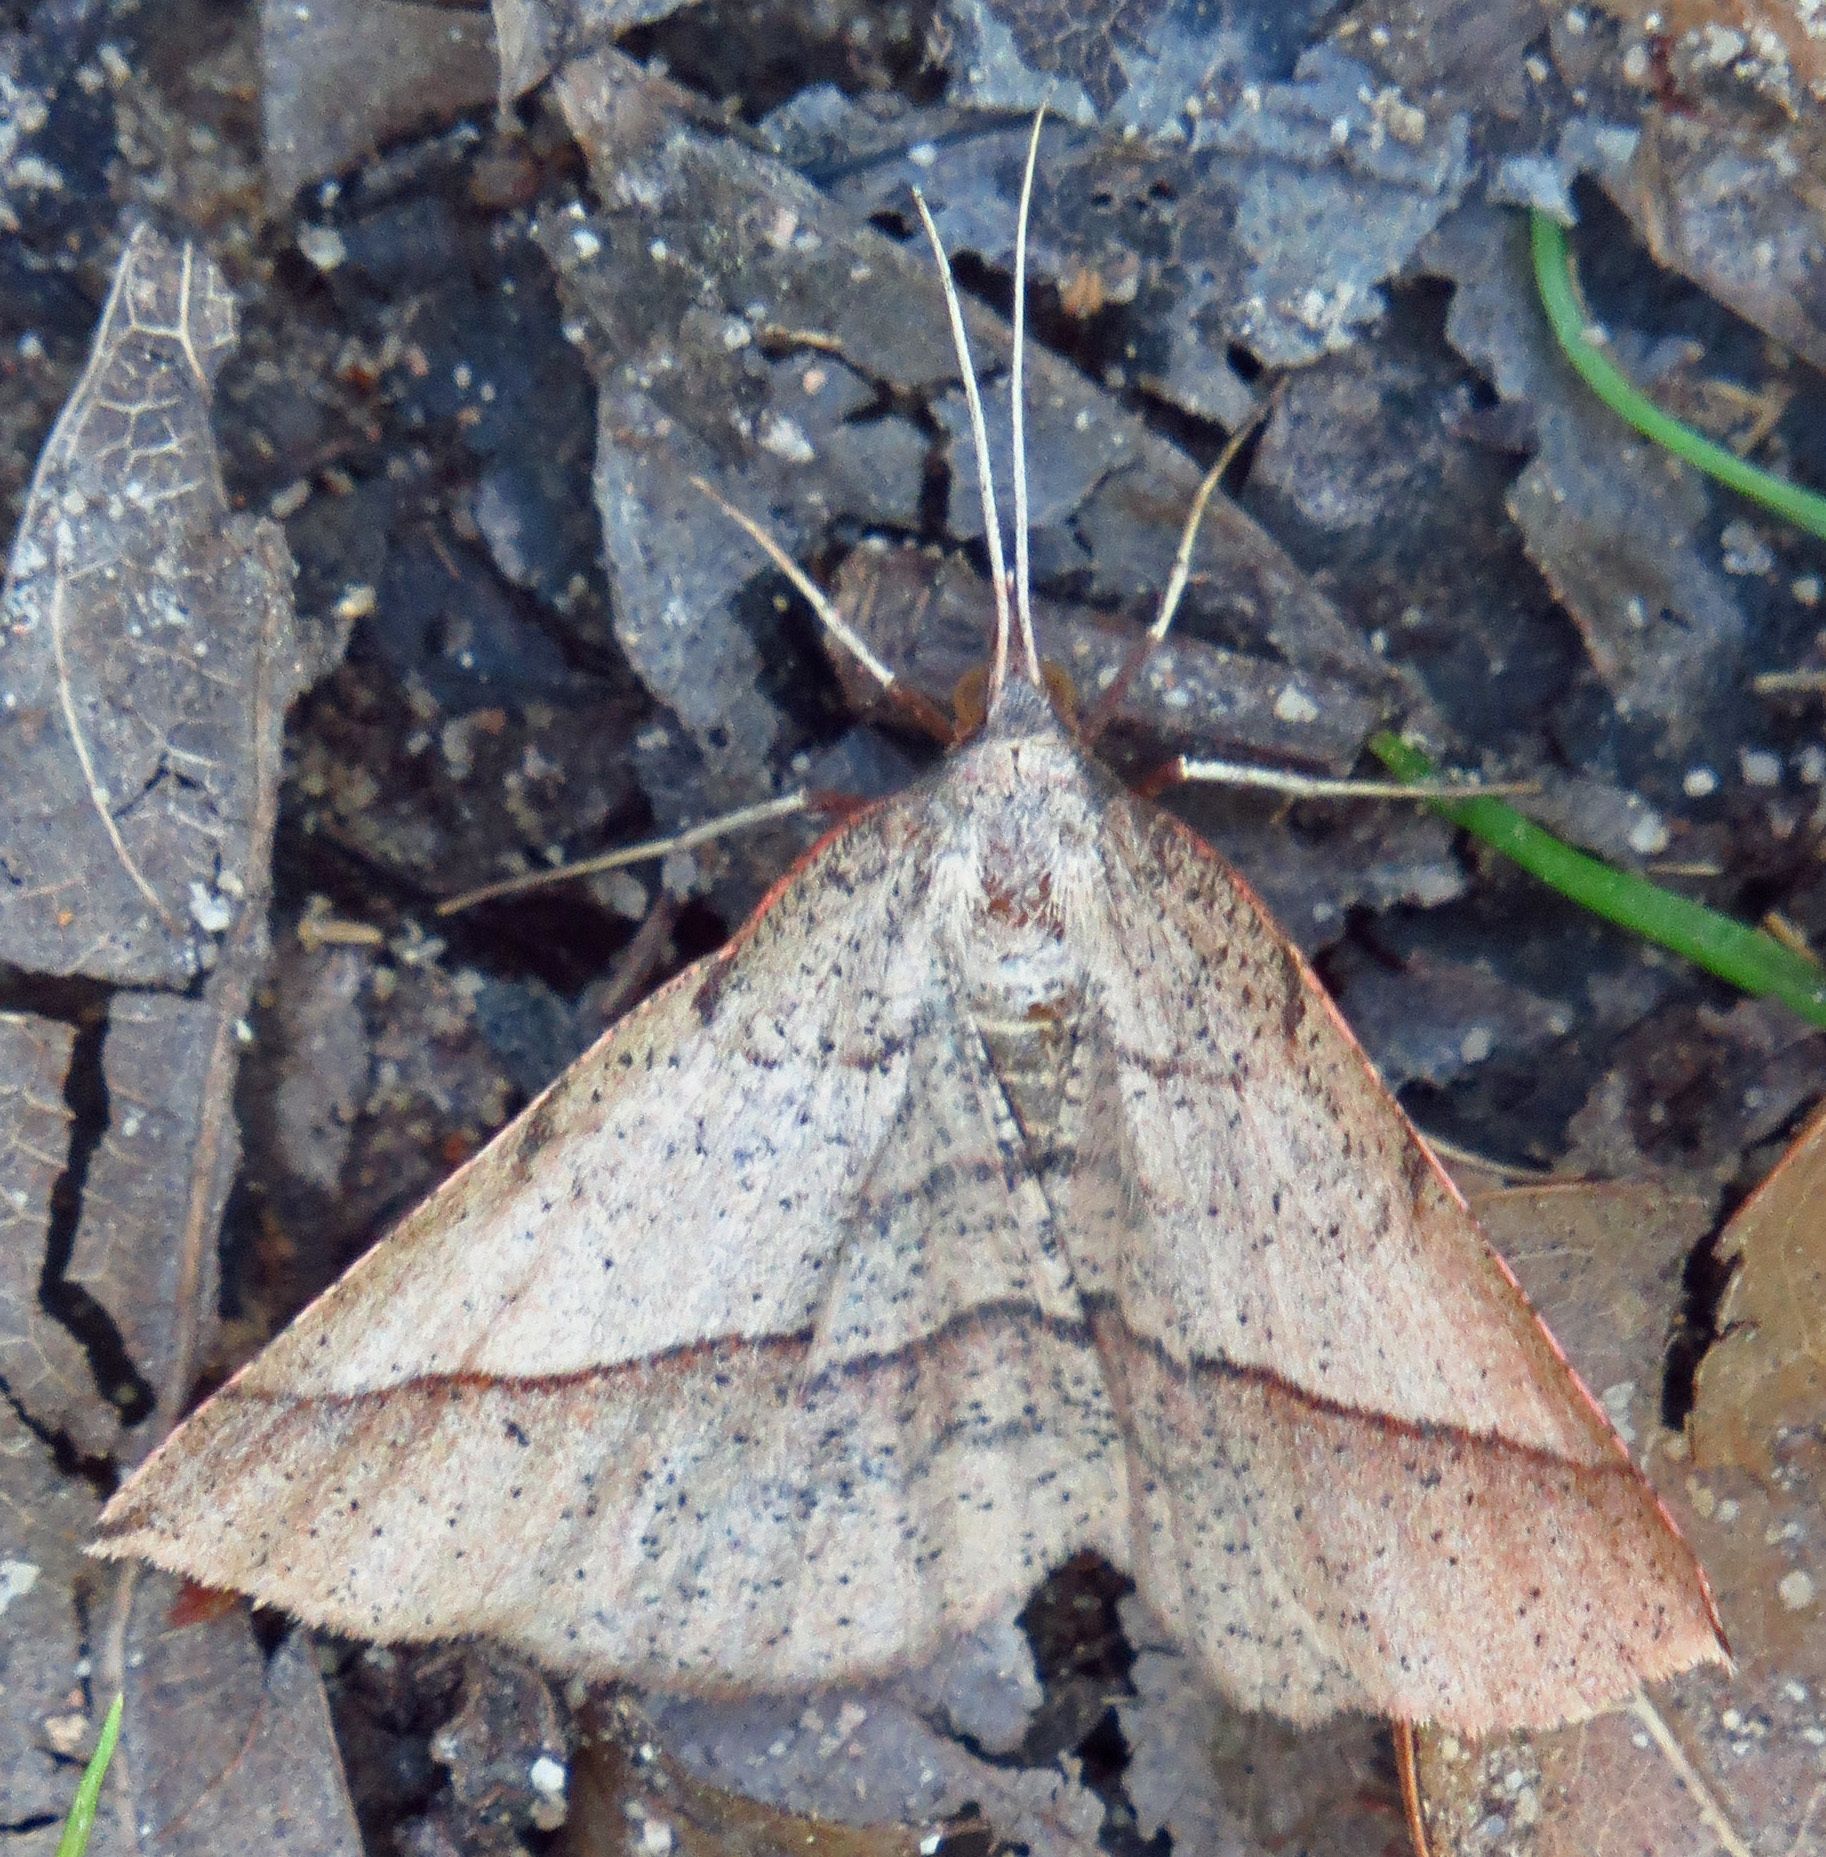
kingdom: Animalia
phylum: Arthropoda
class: Insecta
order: Lepidoptera
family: Geometridae
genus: Erastria
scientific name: Erastria cruentaria
